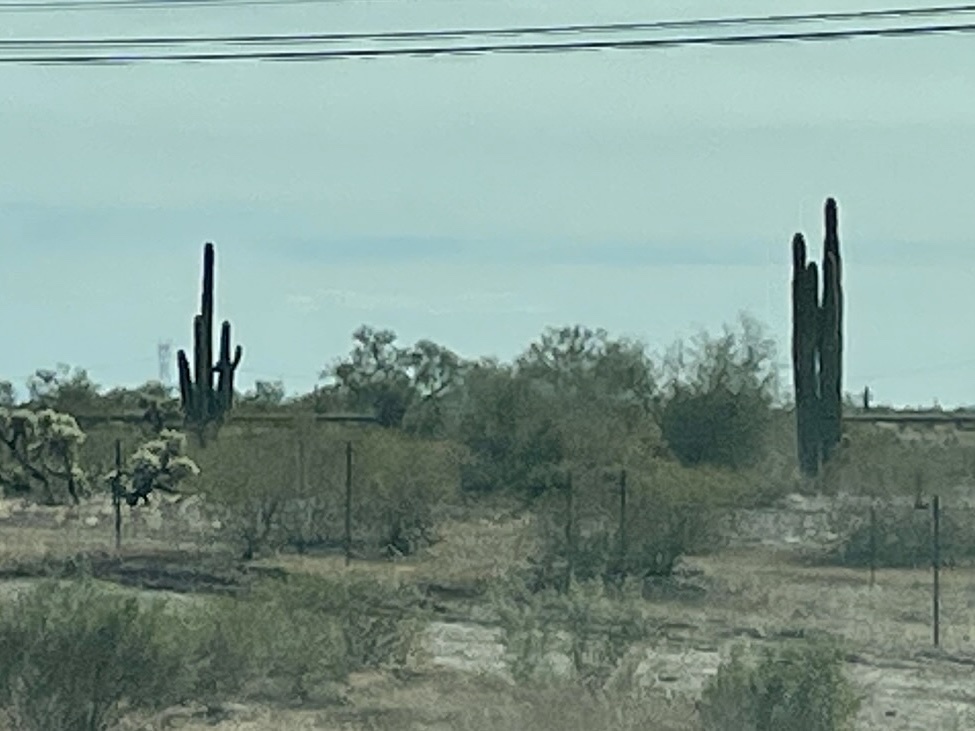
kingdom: Plantae
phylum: Tracheophyta
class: Magnoliopsida
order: Caryophyllales
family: Cactaceae
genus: Carnegiea
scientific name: Carnegiea gigantea
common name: Saguaro
